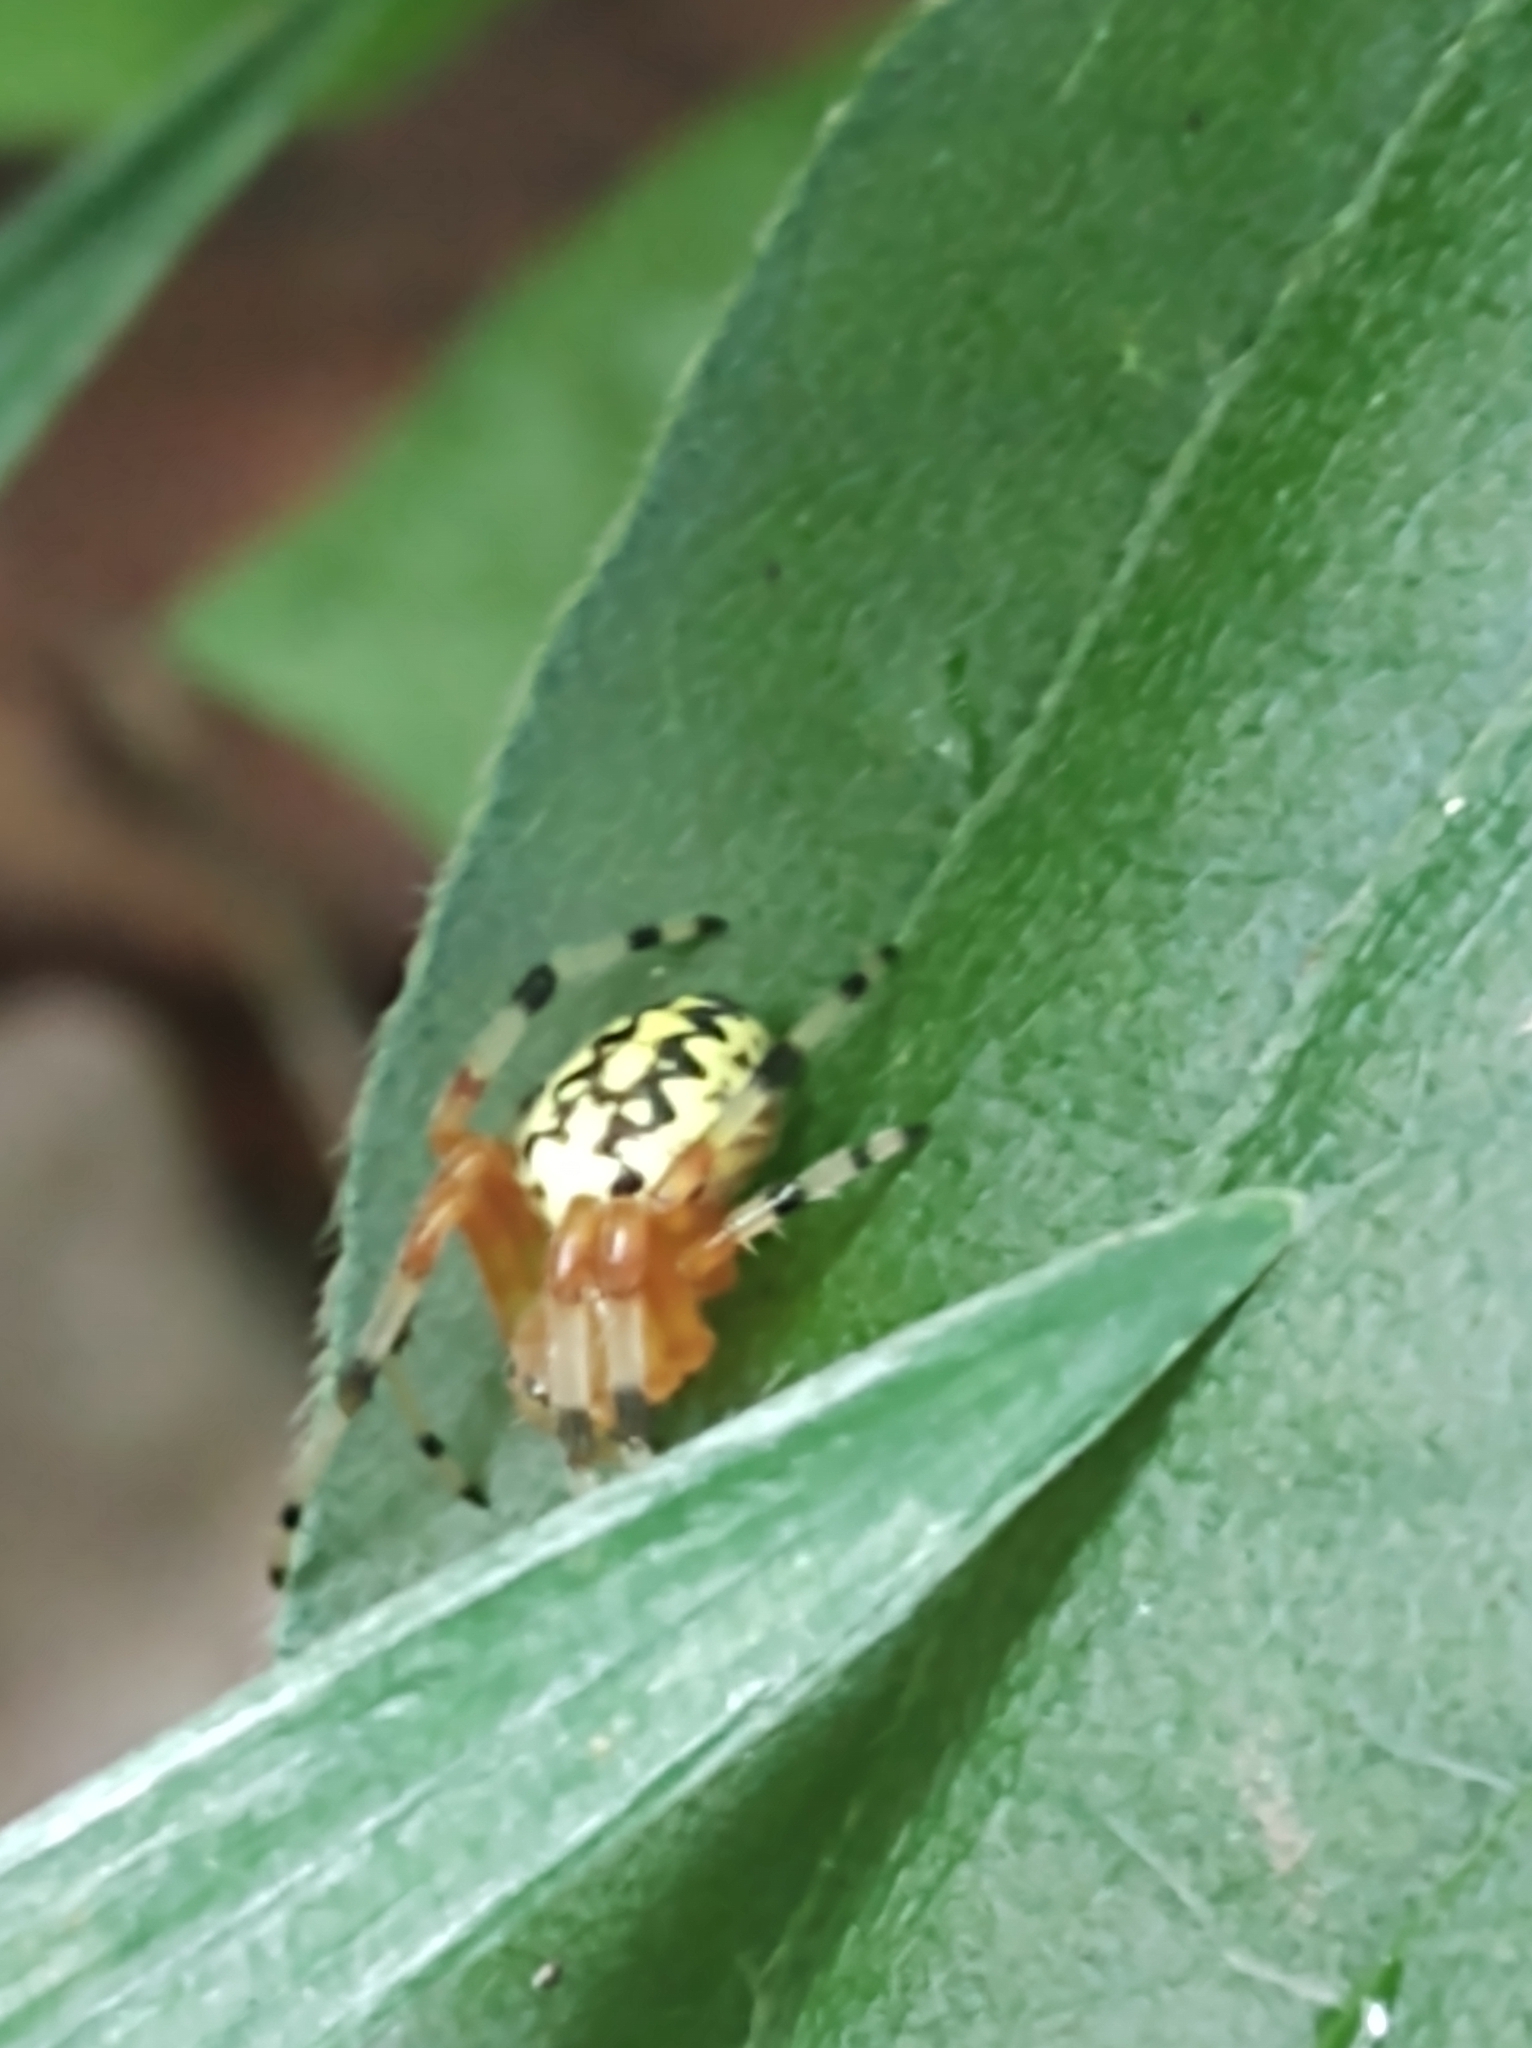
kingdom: Animalia
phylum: Arthropoda
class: Arachnida
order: Araneae
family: Araneidae
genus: Araneus
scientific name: Araneus marmoreus
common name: Marbled orbweaver
